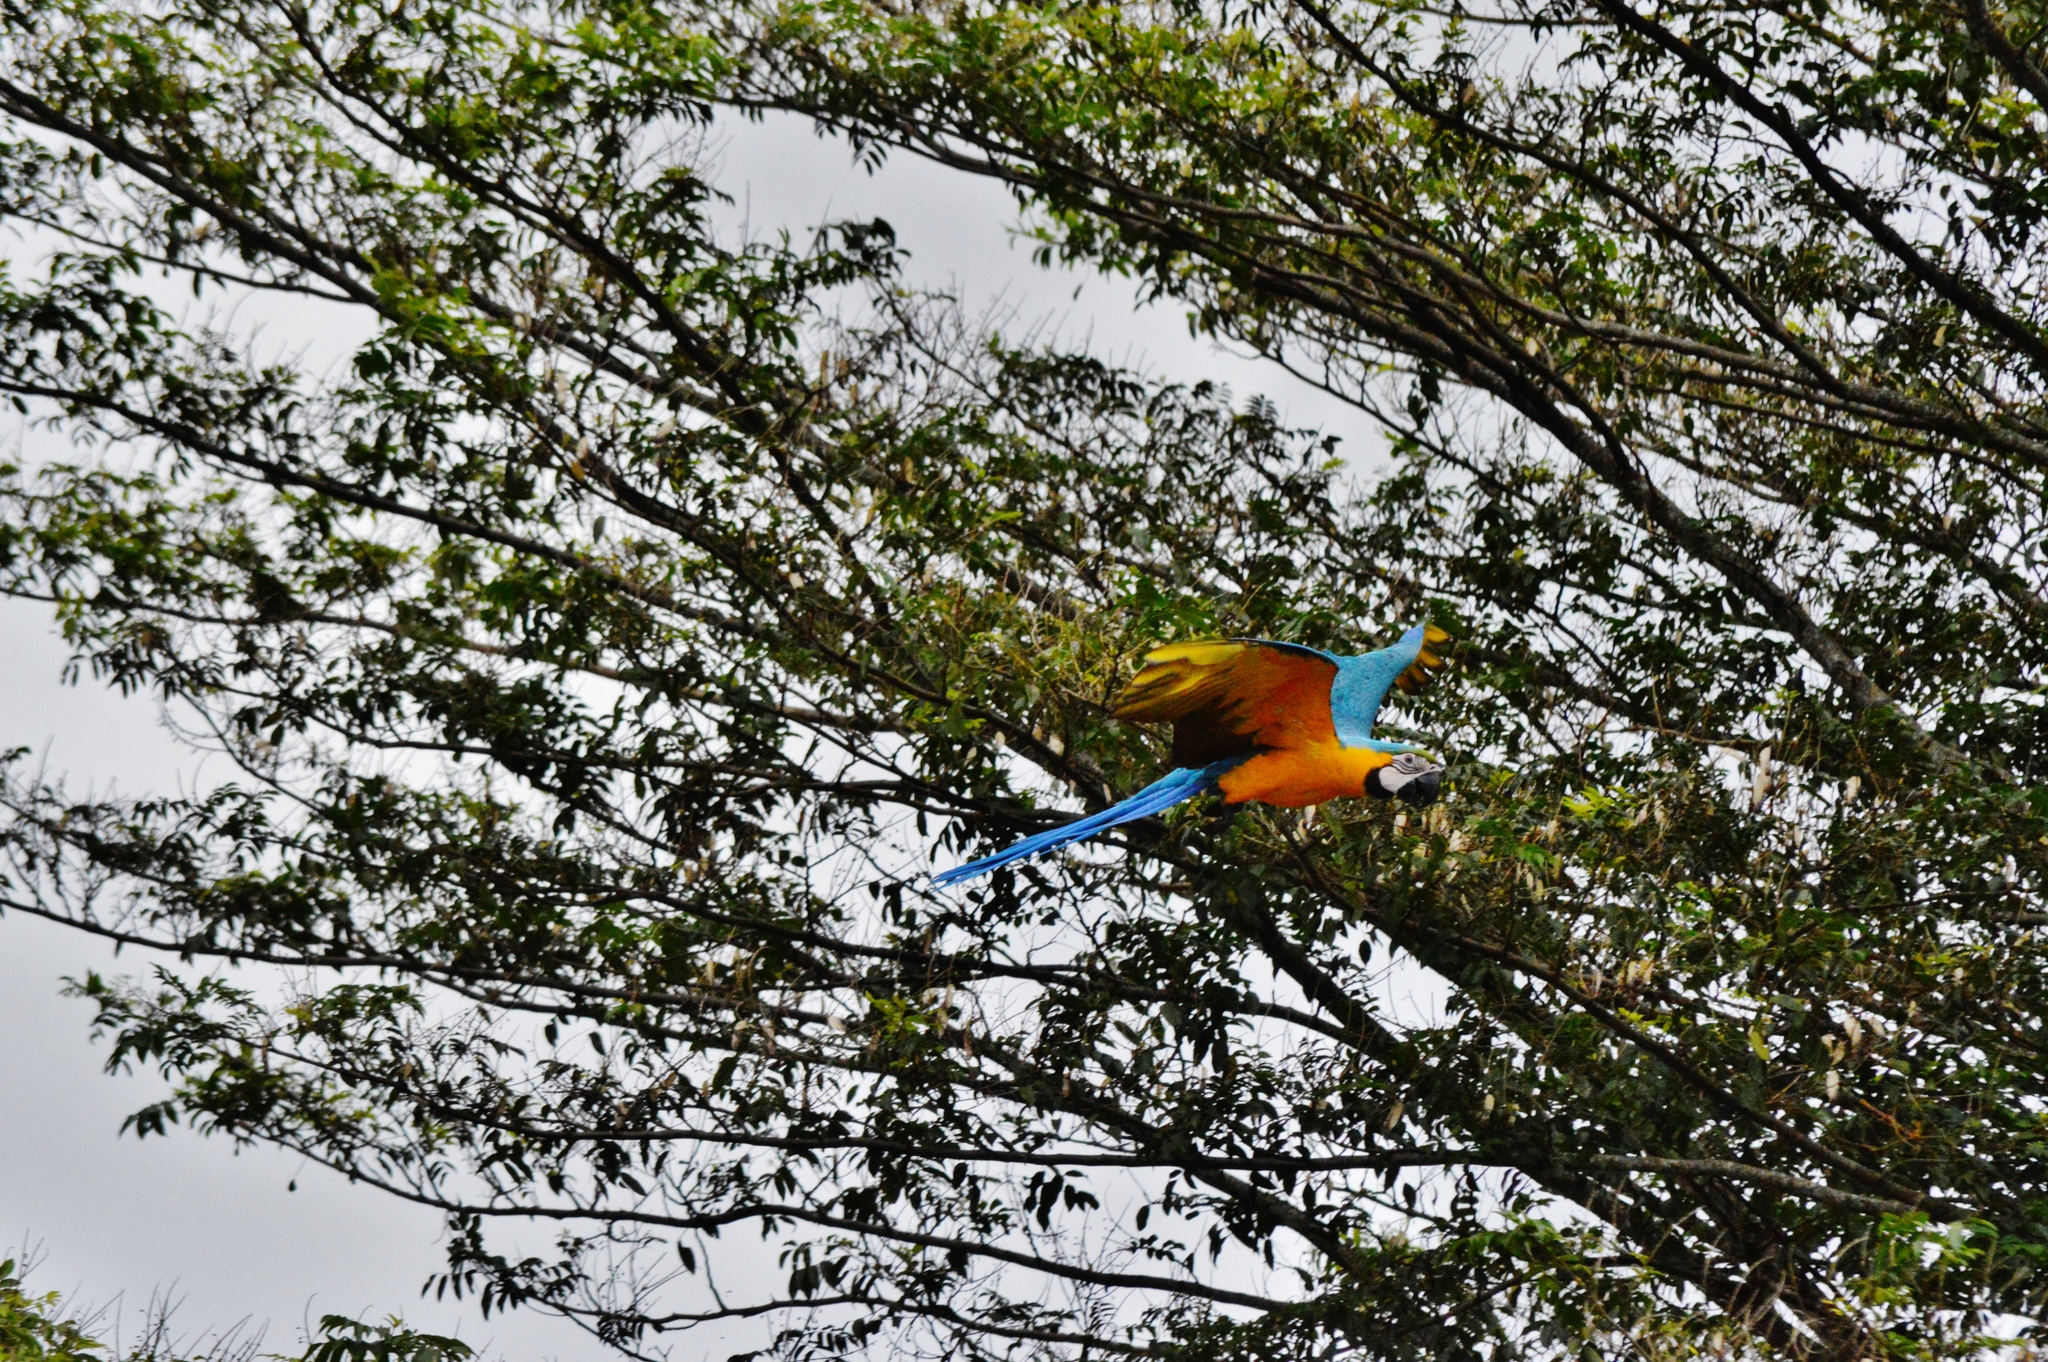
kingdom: Animalia
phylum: Chordata
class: Aves
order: Psittaciformes
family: Psittacidae
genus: Ara
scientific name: Ara ararauna
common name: Blue-and-yellow macaw
